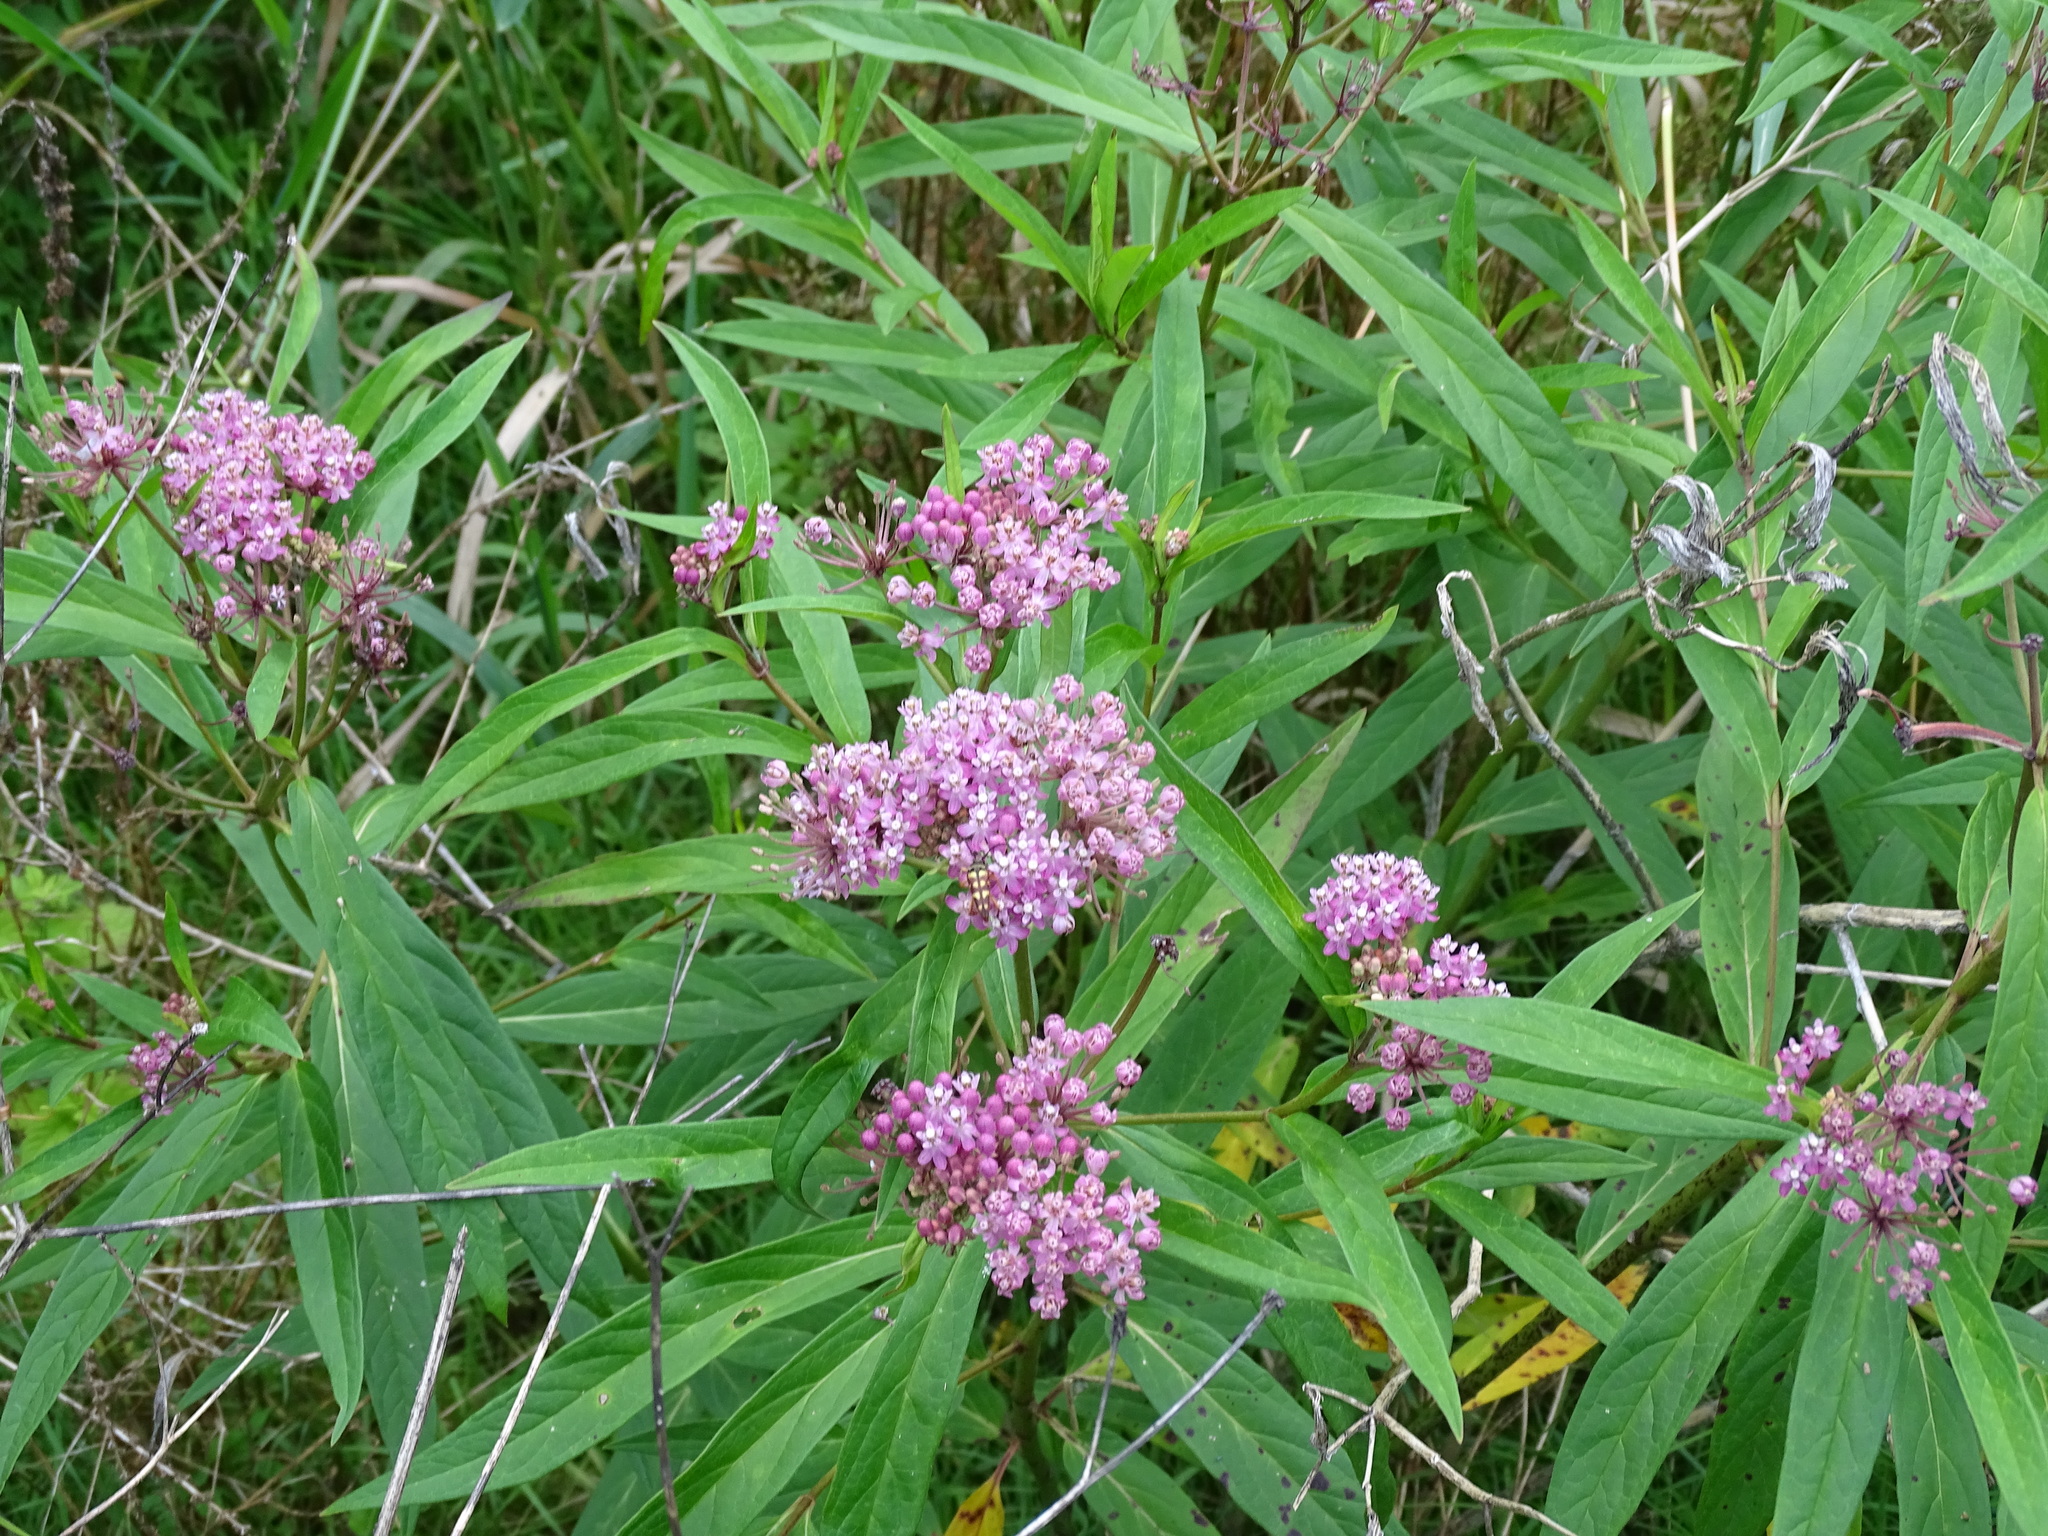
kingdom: Plantae
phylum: Tracheophyta
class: Magnoliopsida
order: Gentianales
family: Apocynaceae
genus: Asclepias
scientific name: Asclepias incarnata
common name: Swamp milkweed
